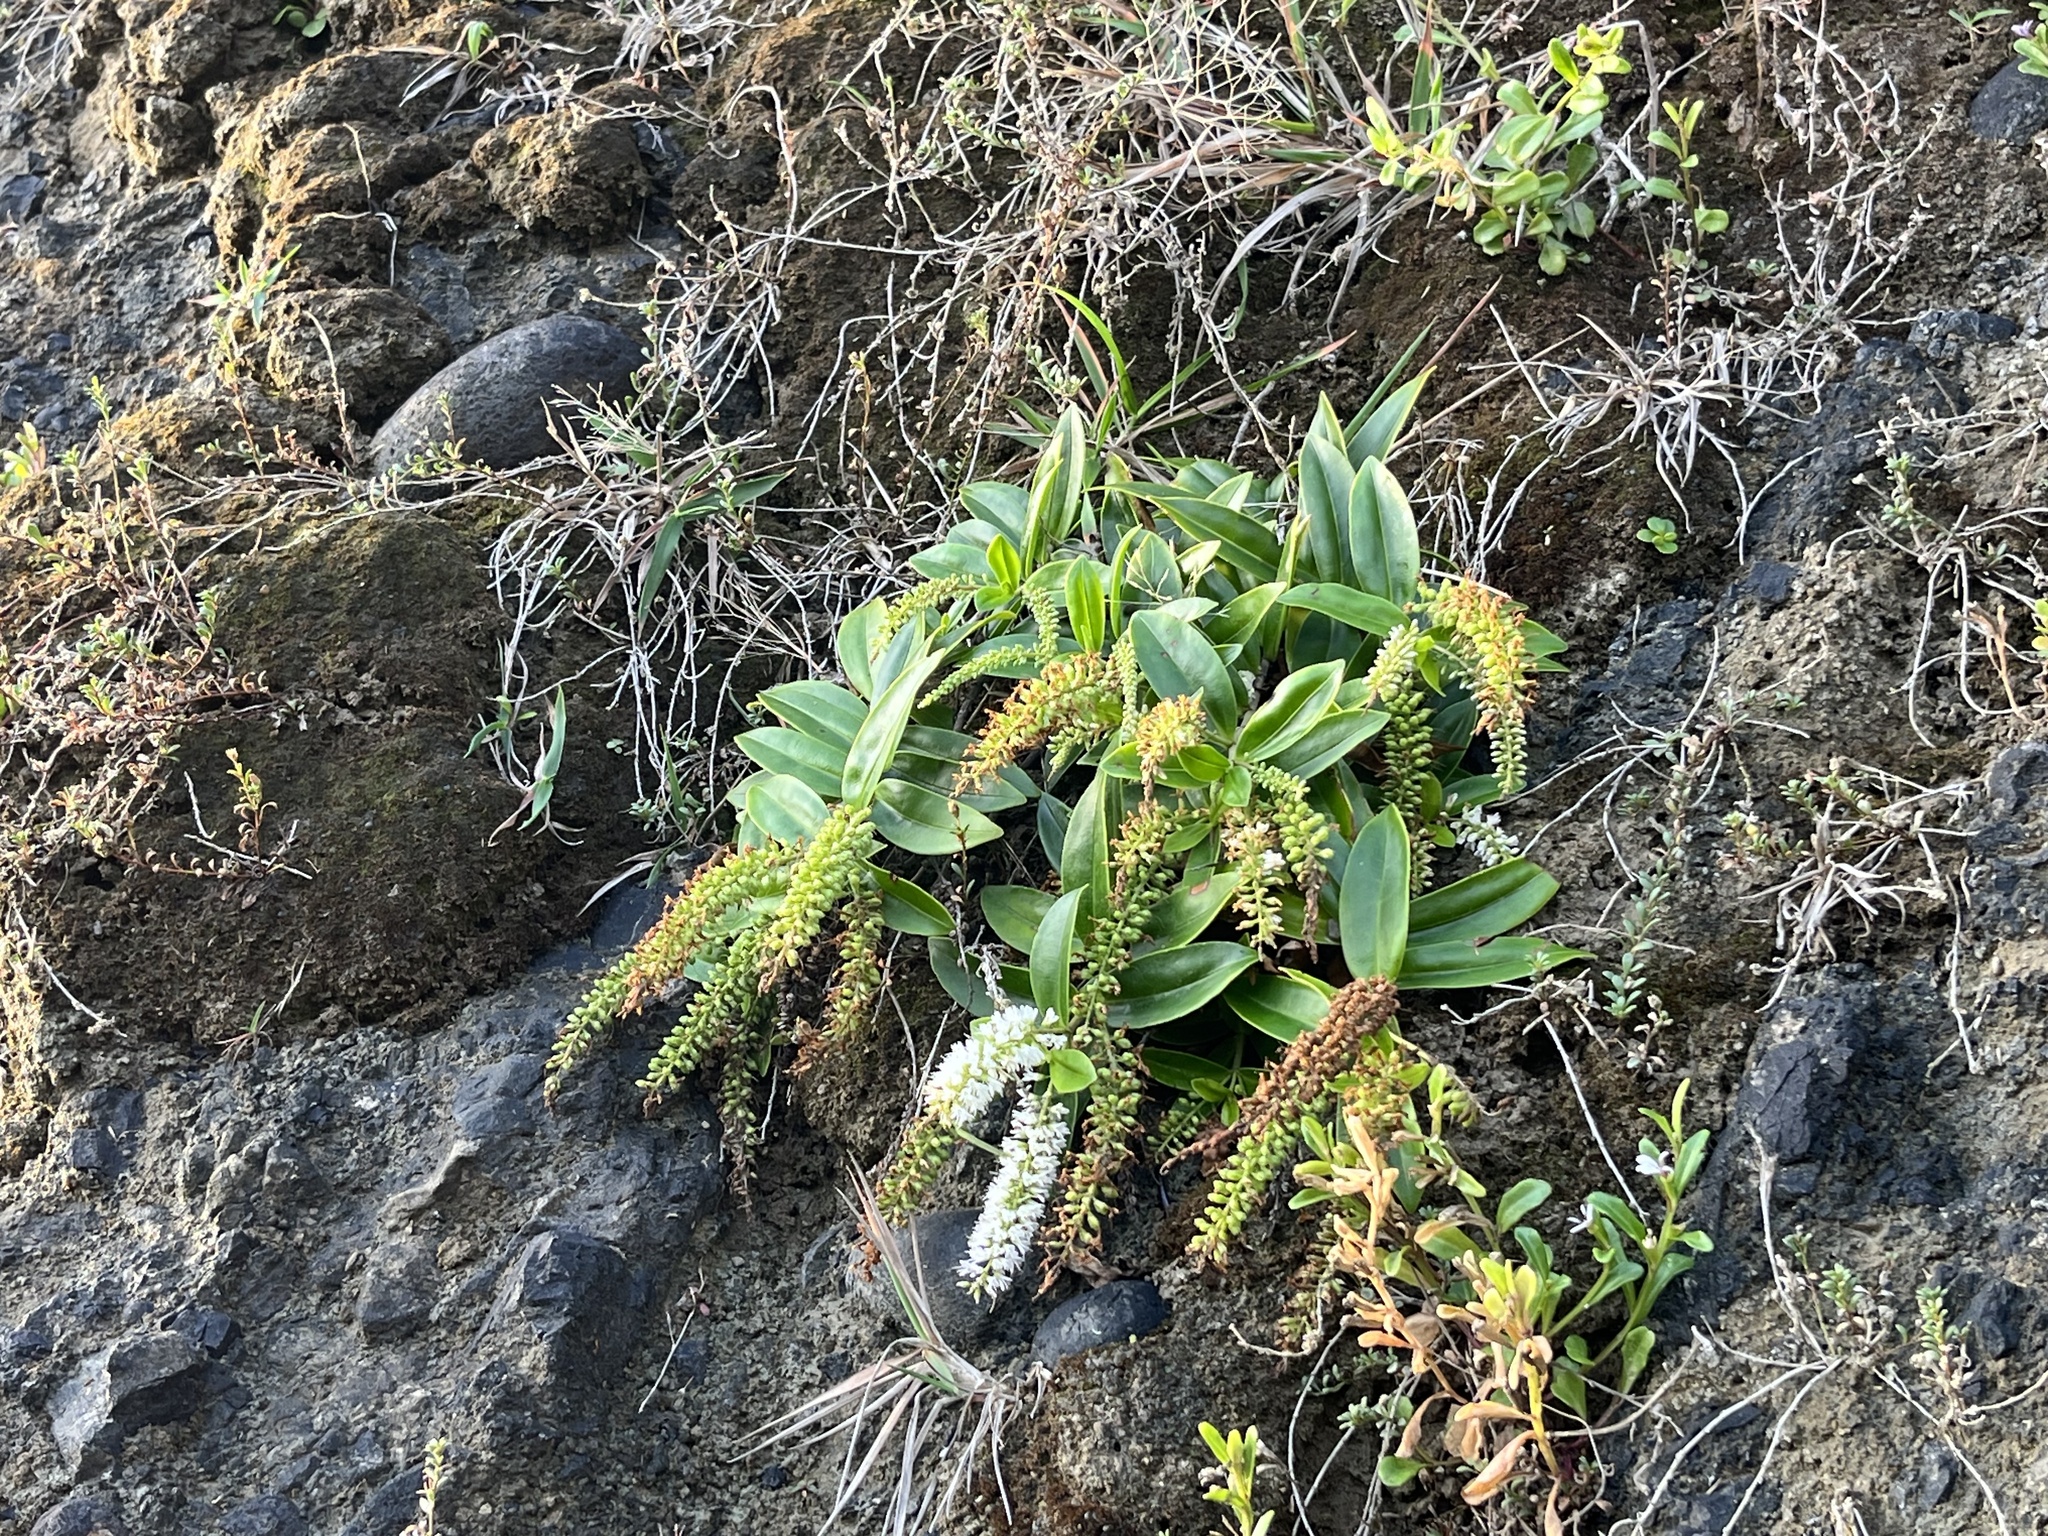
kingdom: Plantae
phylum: Tracheophyta
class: Magnoliopsida
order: Lamiales
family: Plantaginaceae
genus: Veronica
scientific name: Veronica stricta
